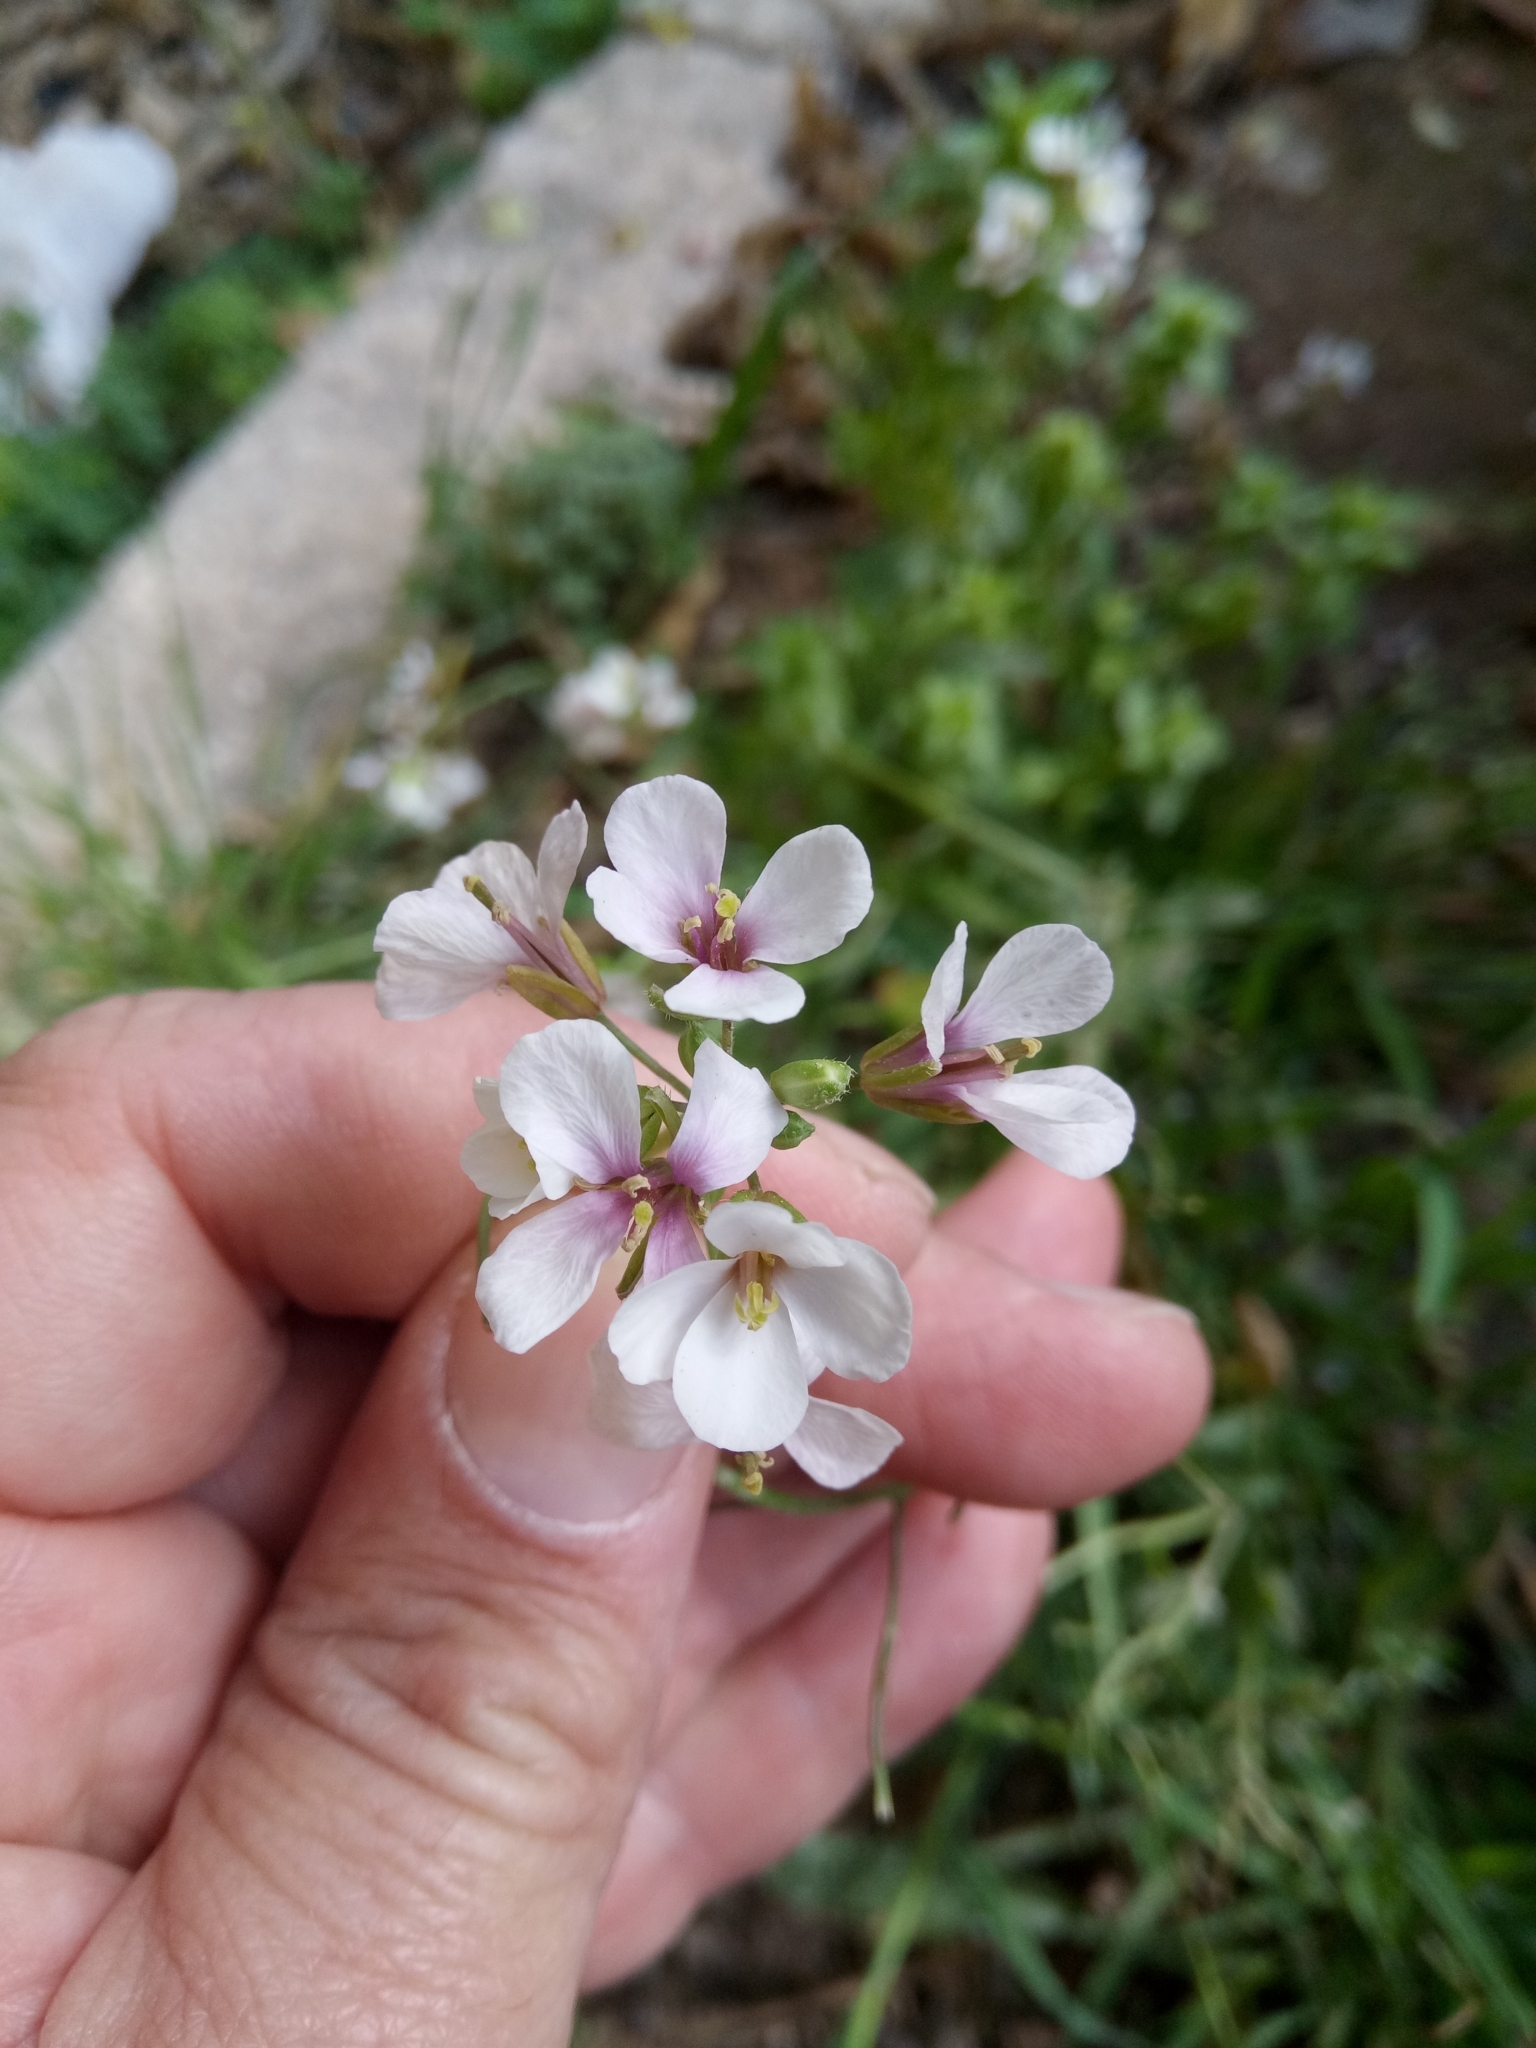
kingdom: Plantae
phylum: Tracheophyta
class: Magnoliopsida
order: Brassicales
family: Brassicaceae
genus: Diplotaxis
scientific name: Diplotaxis erucoides
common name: White rocket
